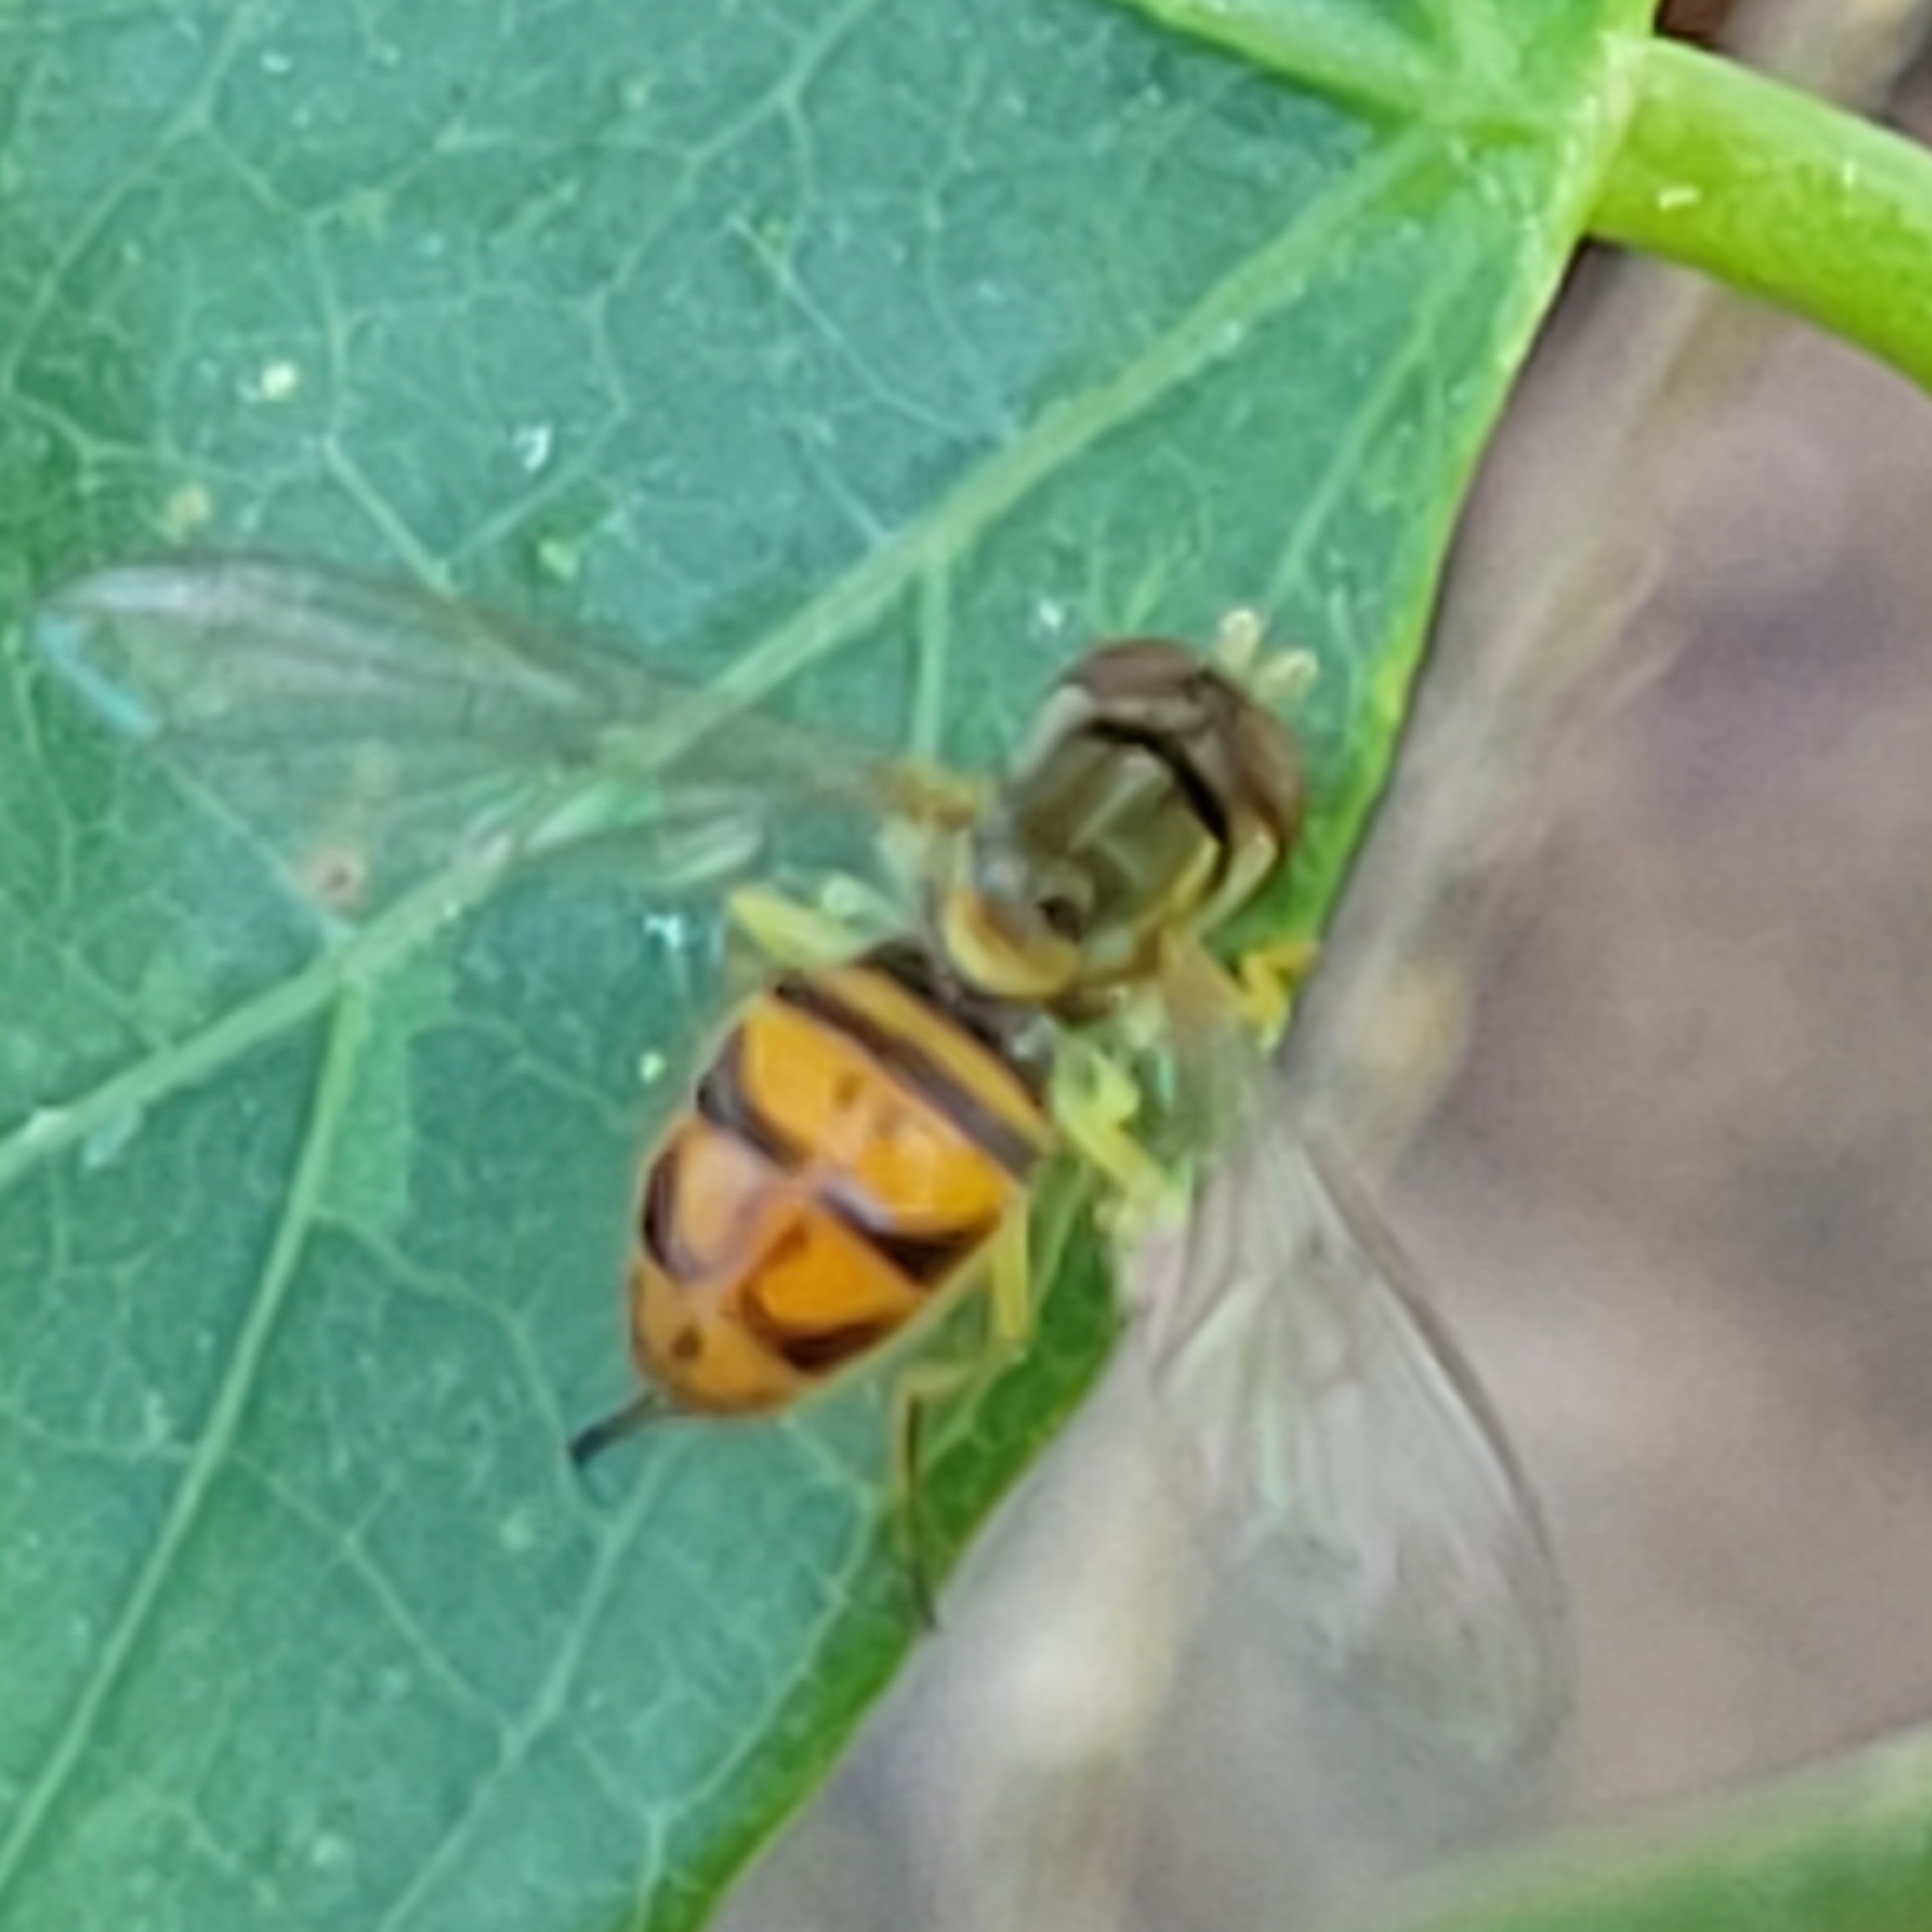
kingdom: Animalia
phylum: Arthropoda
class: Insecta
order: Diptera
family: Syrphidae
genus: Toxomerus
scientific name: Toxomerus marginatus
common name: Syrphid fly
